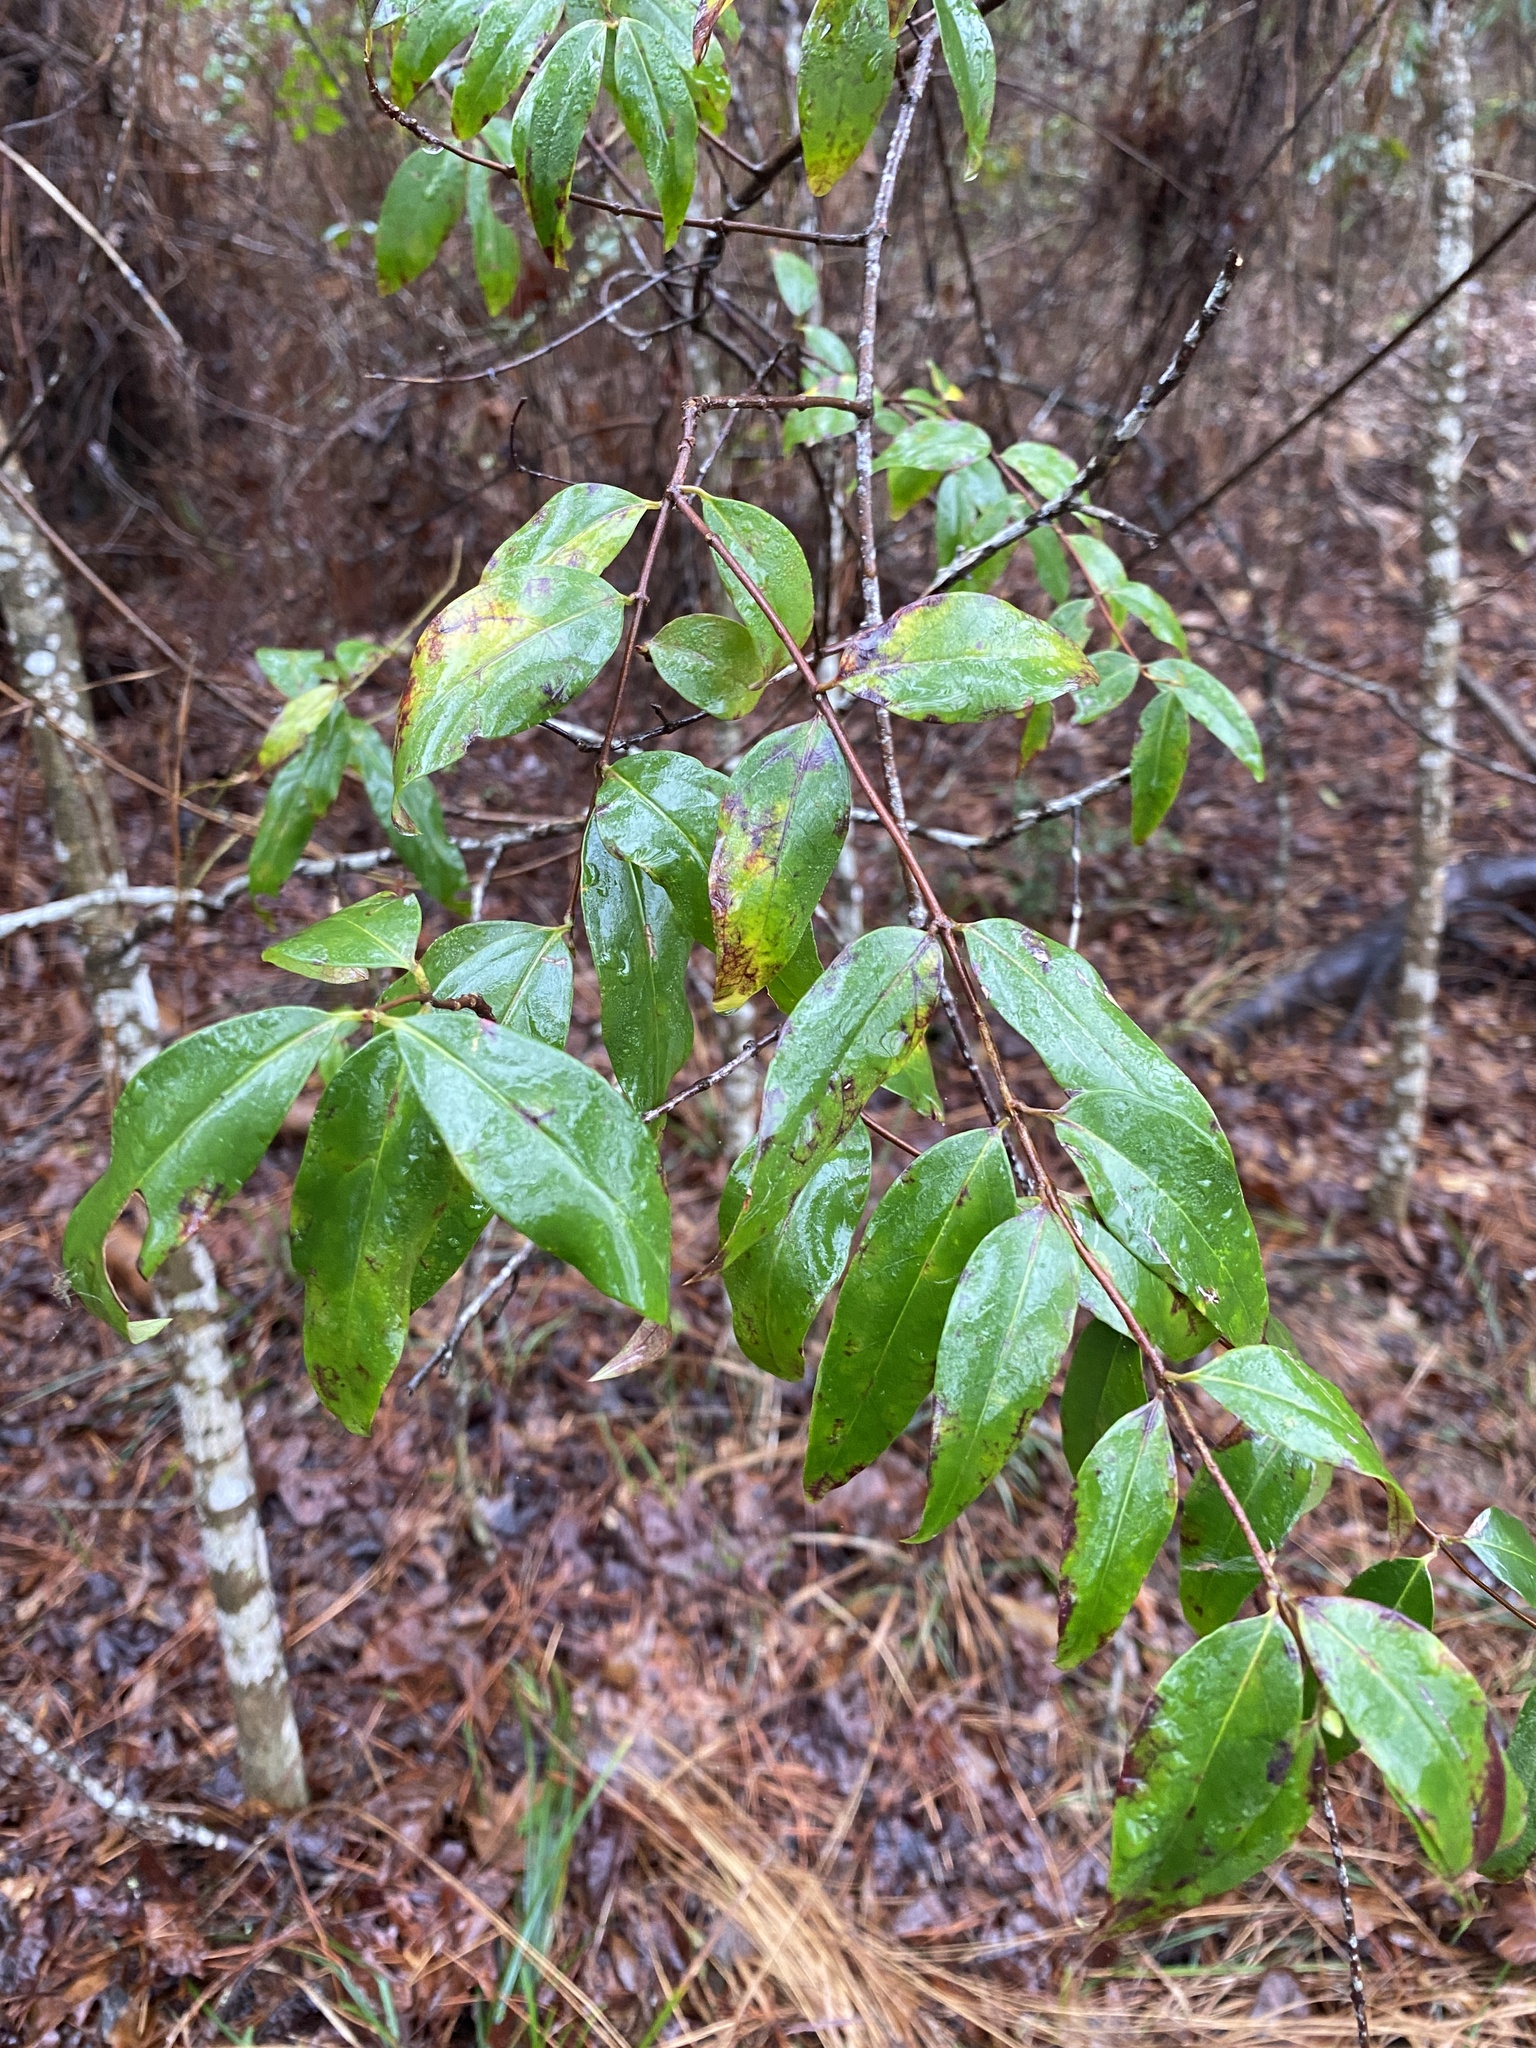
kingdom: Plantae
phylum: Tracheophyta
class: Magnoliopsida
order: Gentianales
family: Gelsemiaceae
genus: Gelsemium
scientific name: Gelsemium sempervirens
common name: Carolina-jasmine
